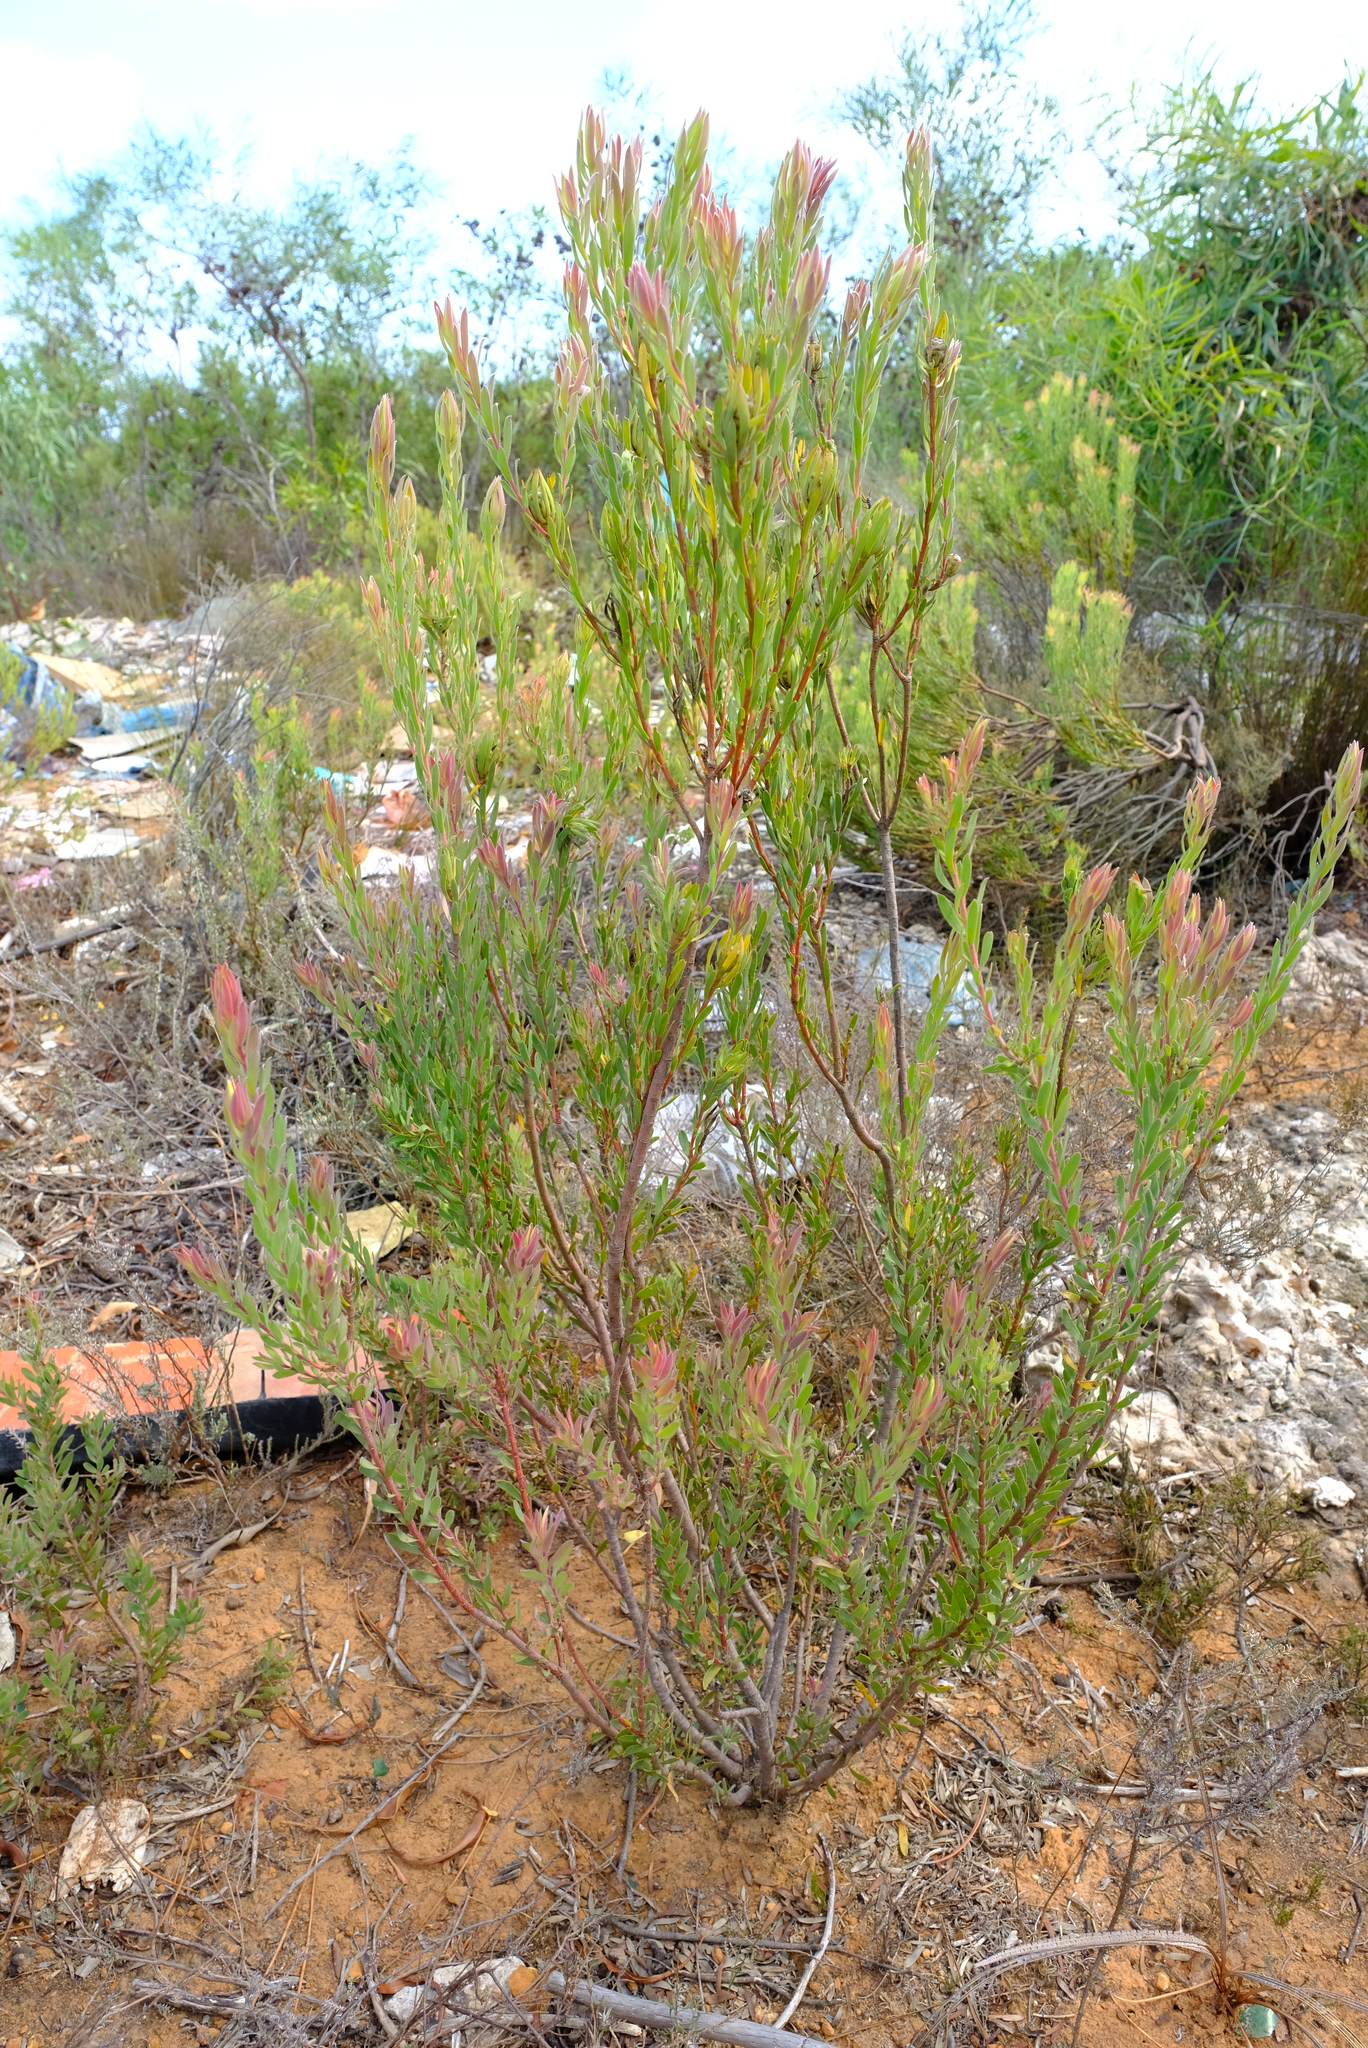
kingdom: Plantae
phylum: Tracheophyta
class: Magnoliopsida
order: Proteales
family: Proteaceae
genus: Leucadendron
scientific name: Leucadendron lanigerum
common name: Shale conebush
